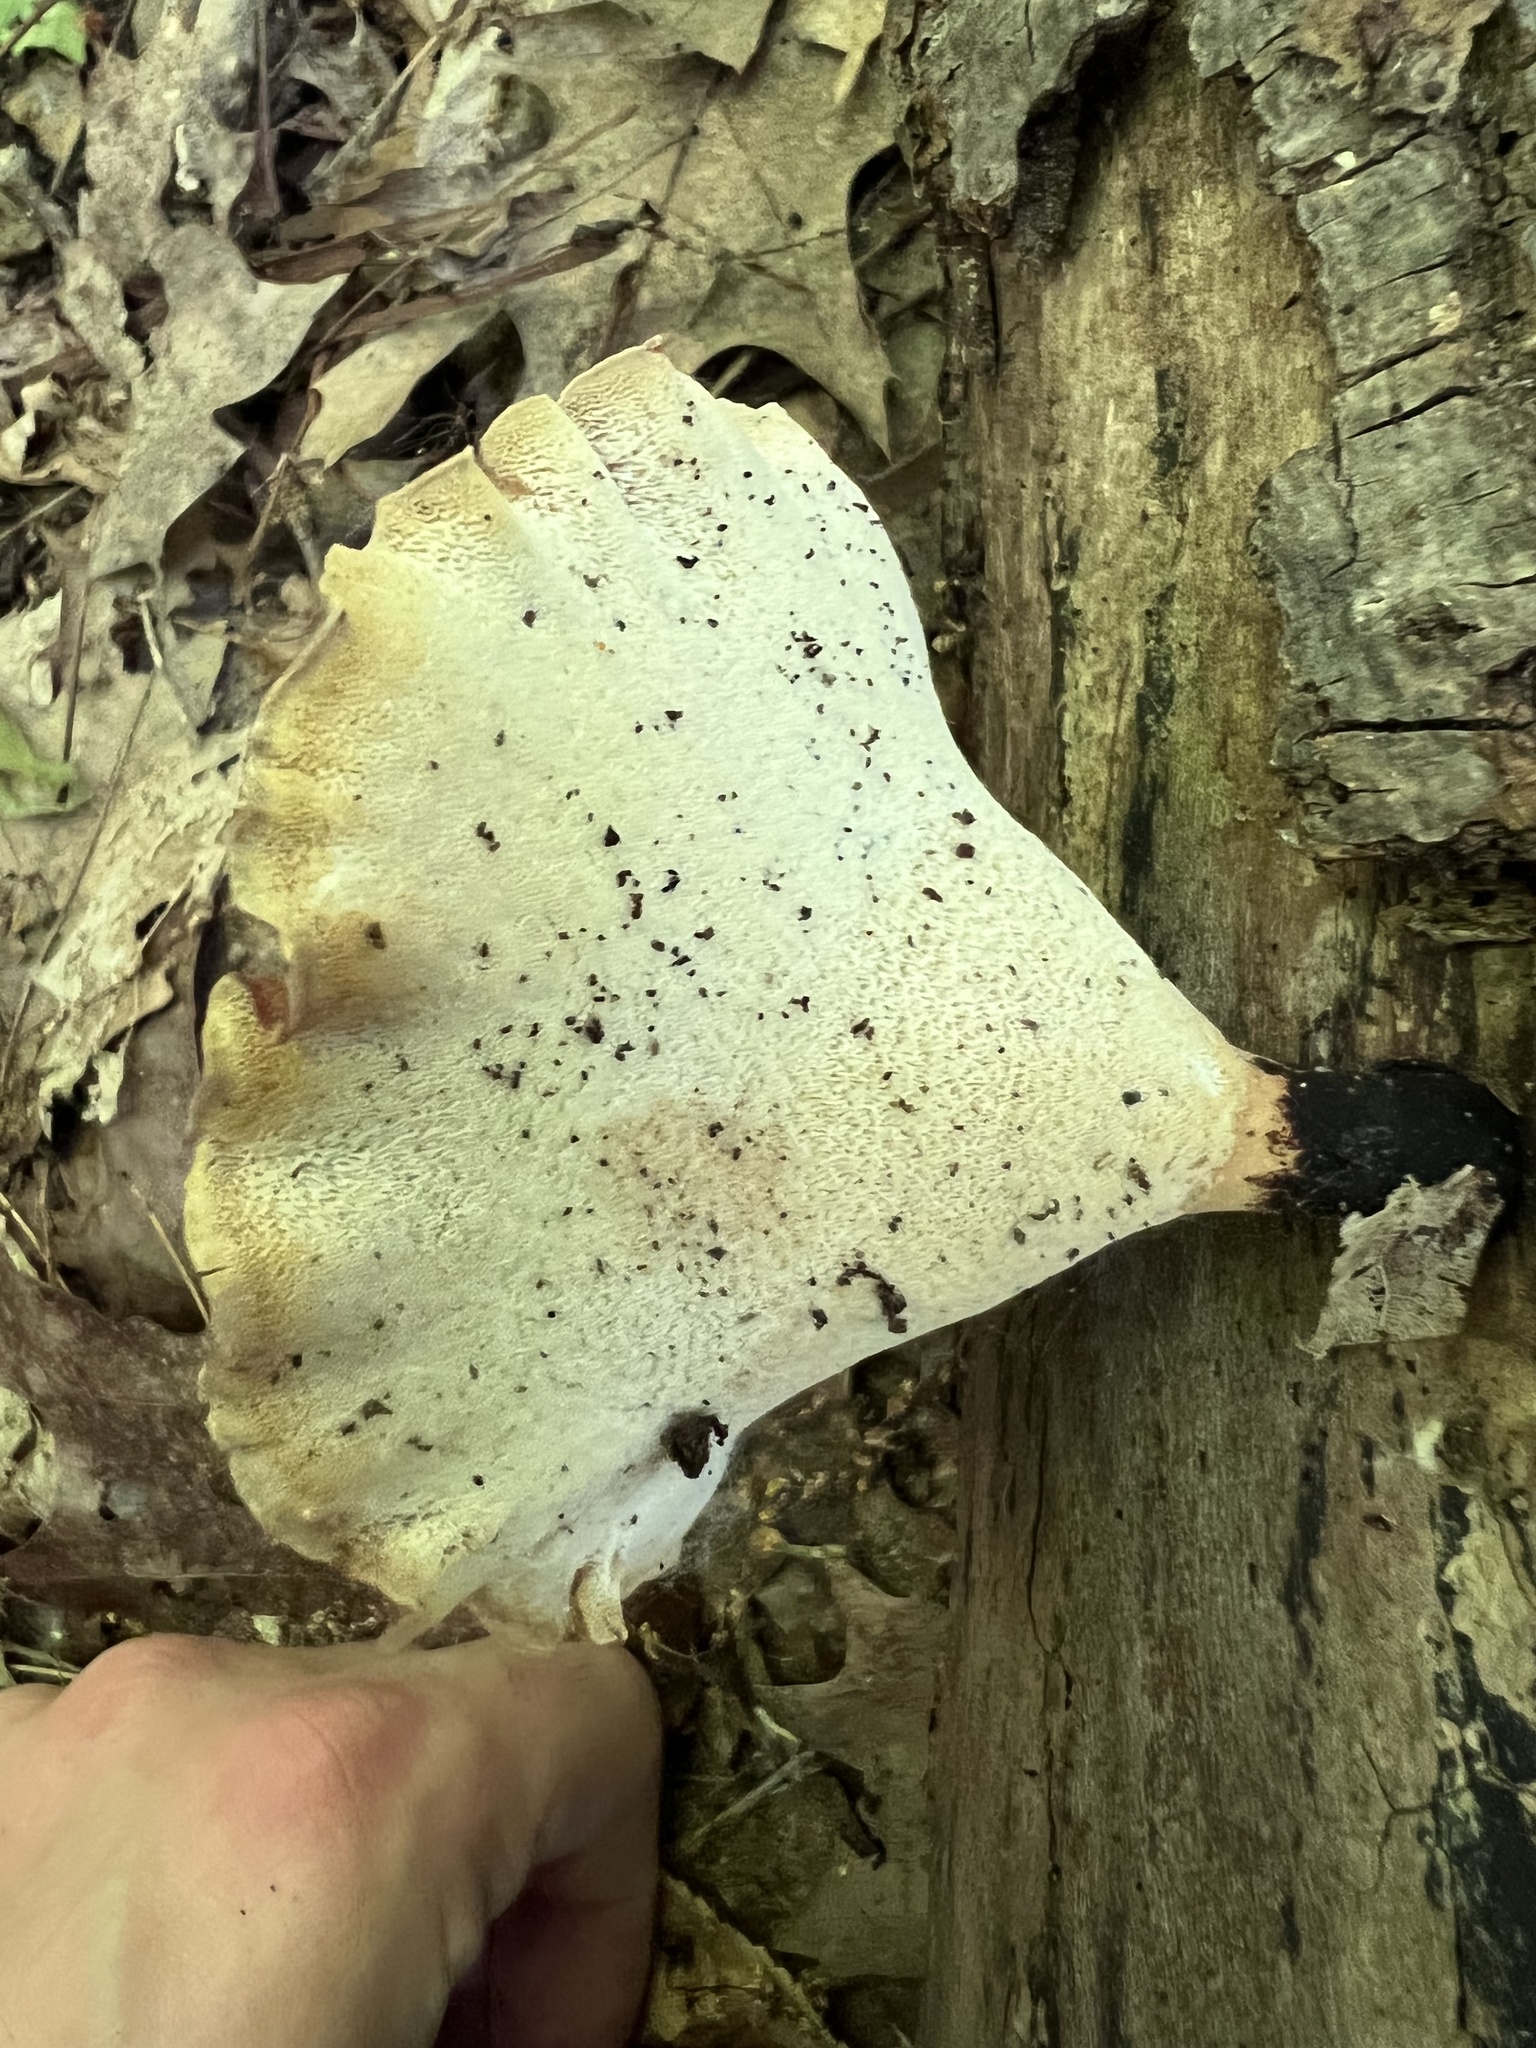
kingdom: Fungi
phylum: Basidiomycota
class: Agaricomycetes
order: Polyporales
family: Polyporaceae
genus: Cerioporus
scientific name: Cerioporus varius
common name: Elegant polypore
